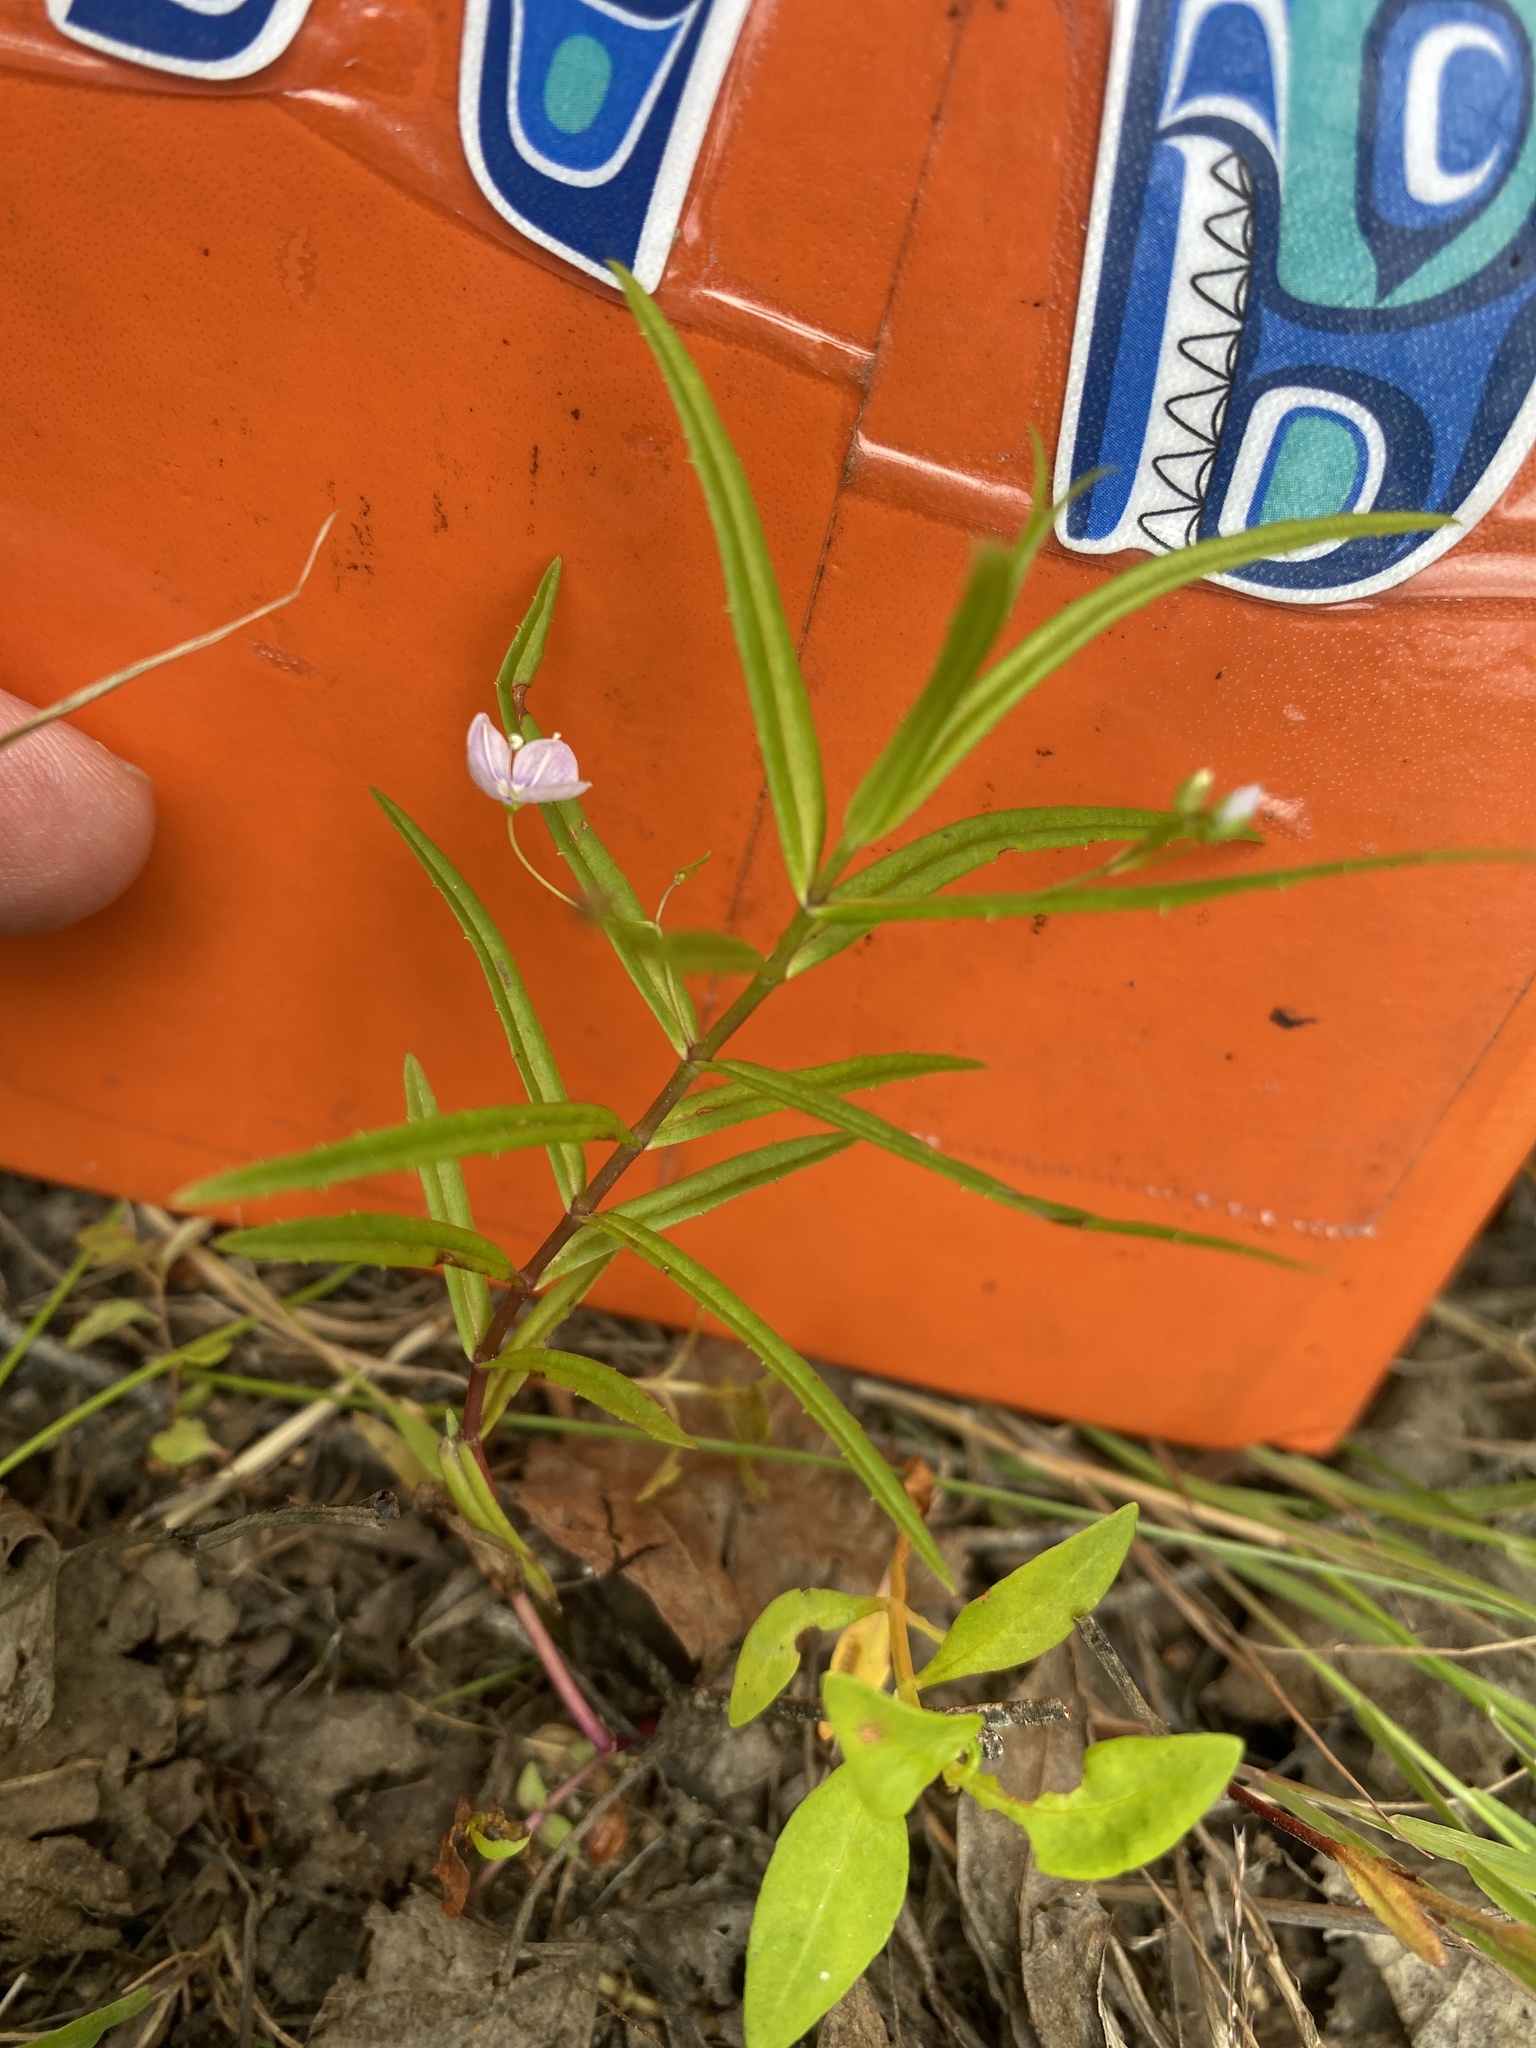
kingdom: Plantae
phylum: Tracheophyta
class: Magnoliopsida
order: Lamiales
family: Plantaginaceae
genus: Veronica
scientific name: Veronica scutellata
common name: Marsh speedwell
